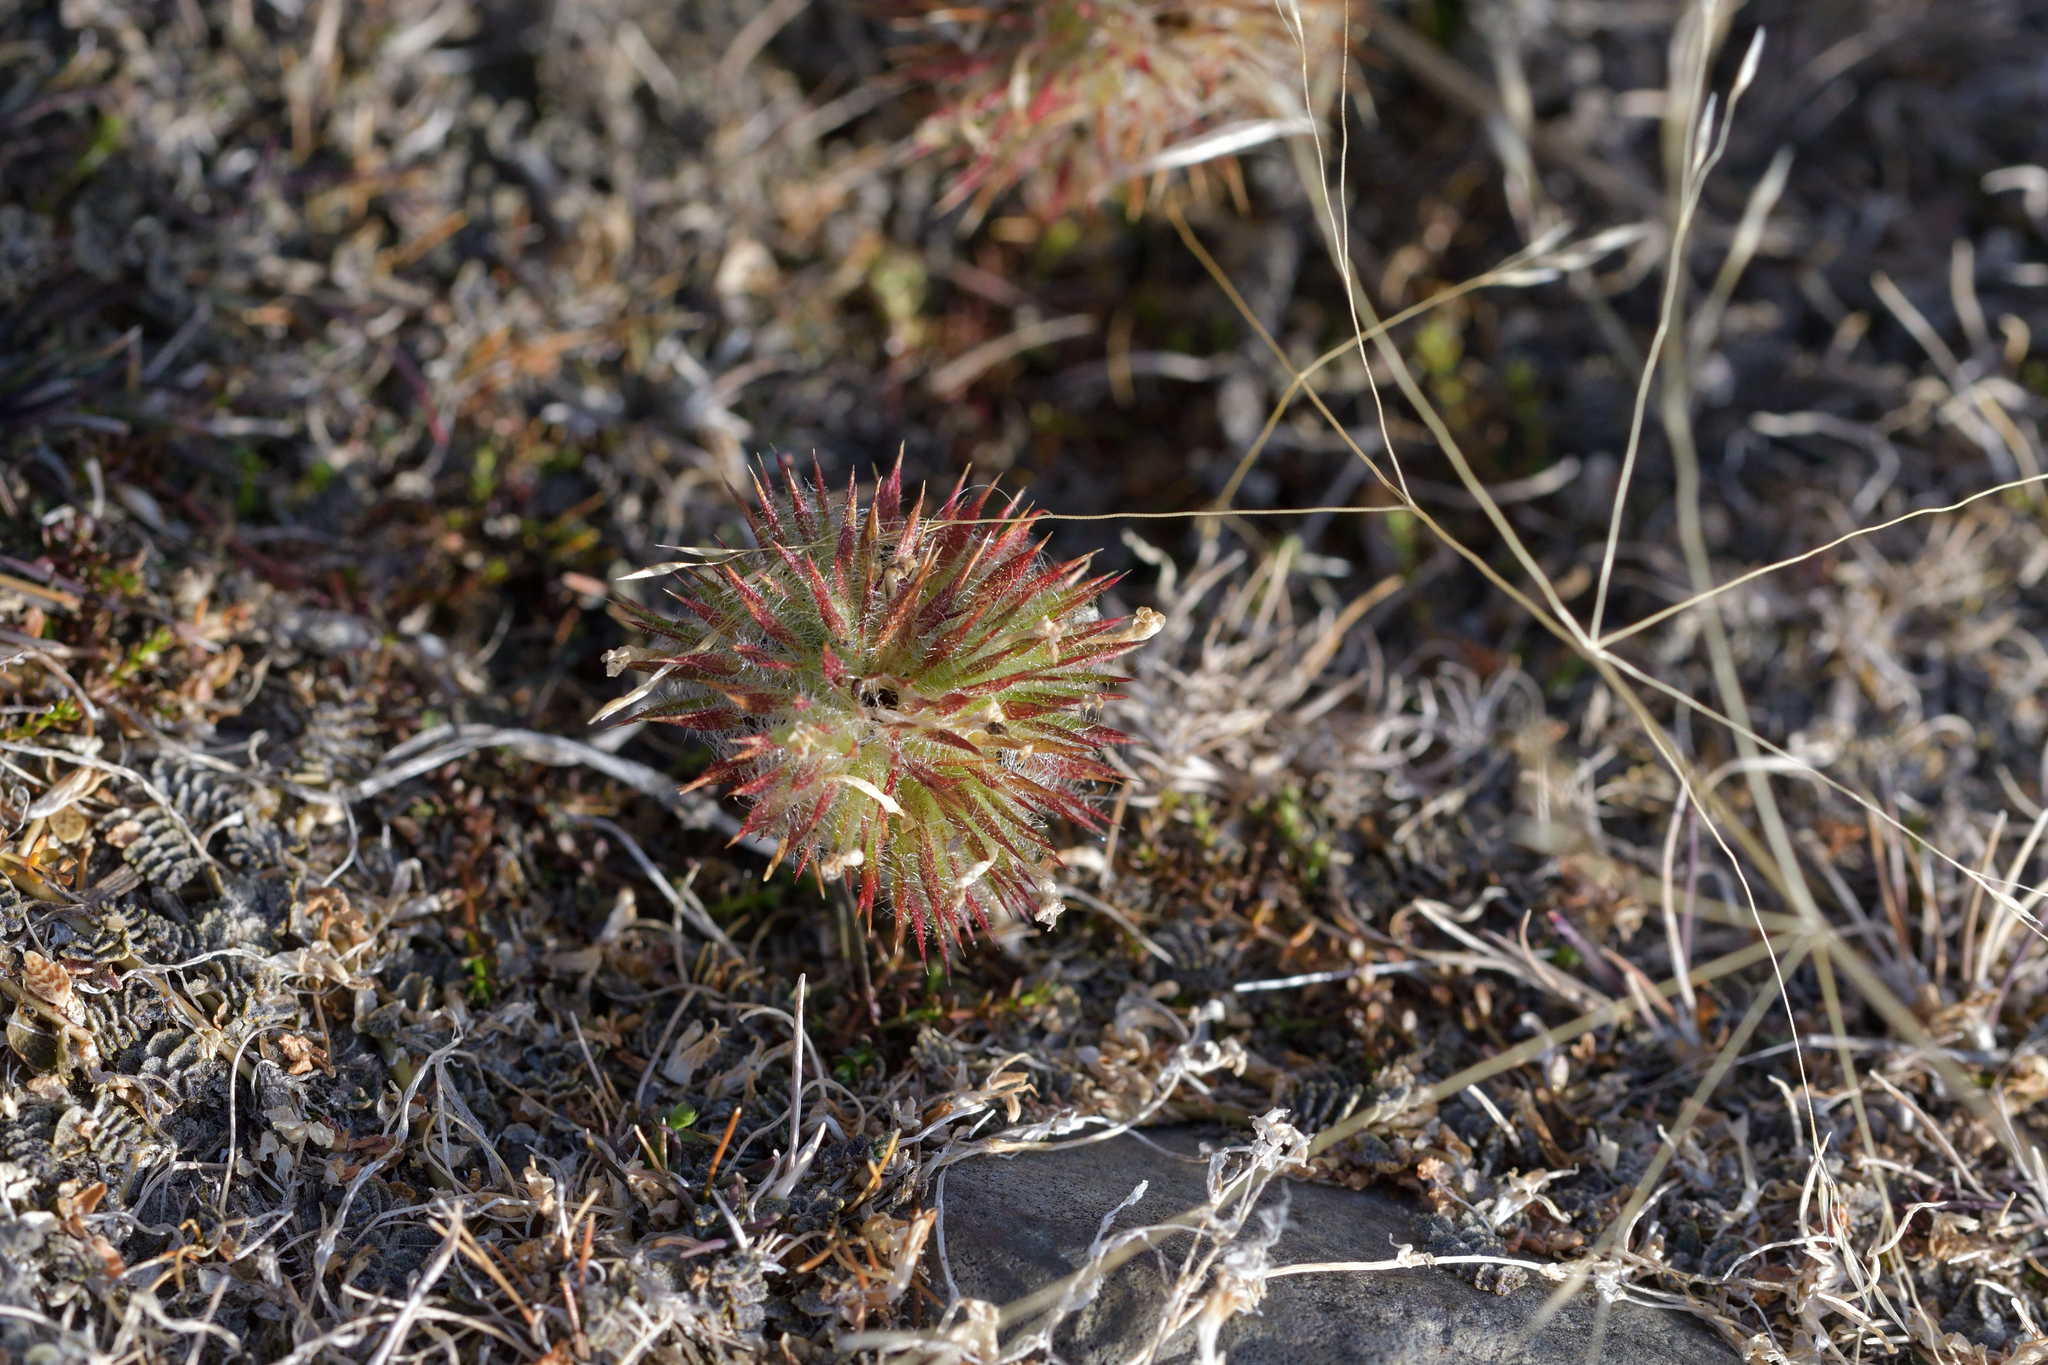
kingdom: Plantae
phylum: Tracheophyta
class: Magnoliopsida
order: Ericales
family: Polemoniaceae
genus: Navarretia
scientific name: Navarretia squarrosa
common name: Skunkweed
